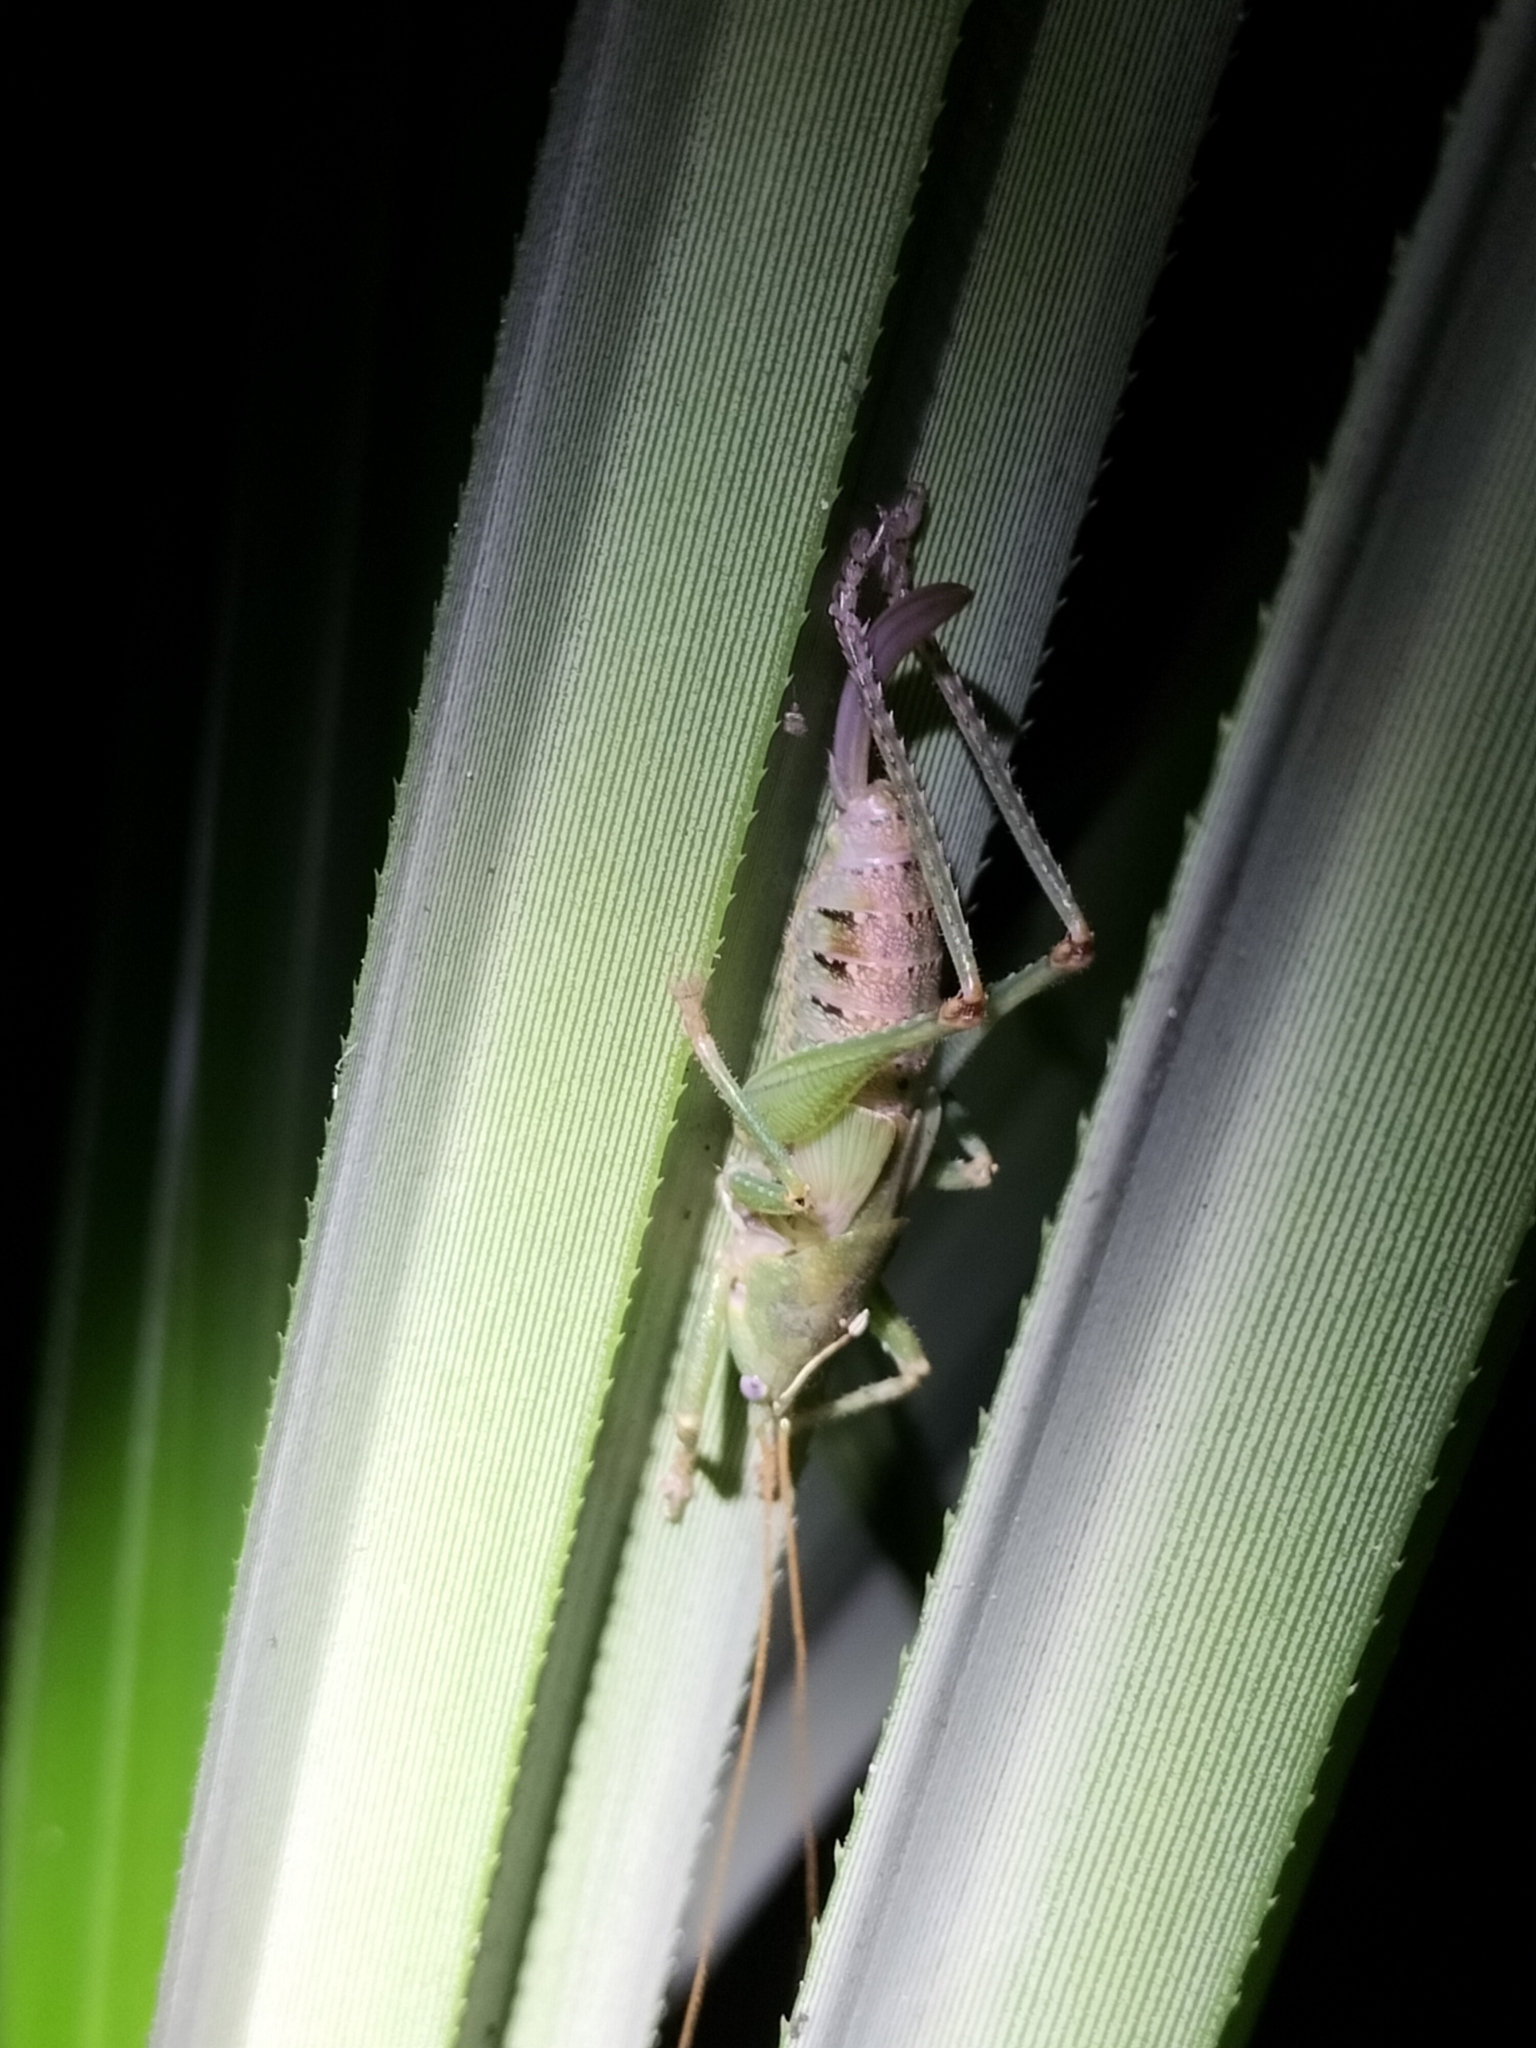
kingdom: Animalia
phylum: Arthropoda
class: Insecta
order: Orthoptera
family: Tettigoniidae
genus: Austrosalomona
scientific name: Austrosalomona destructor
